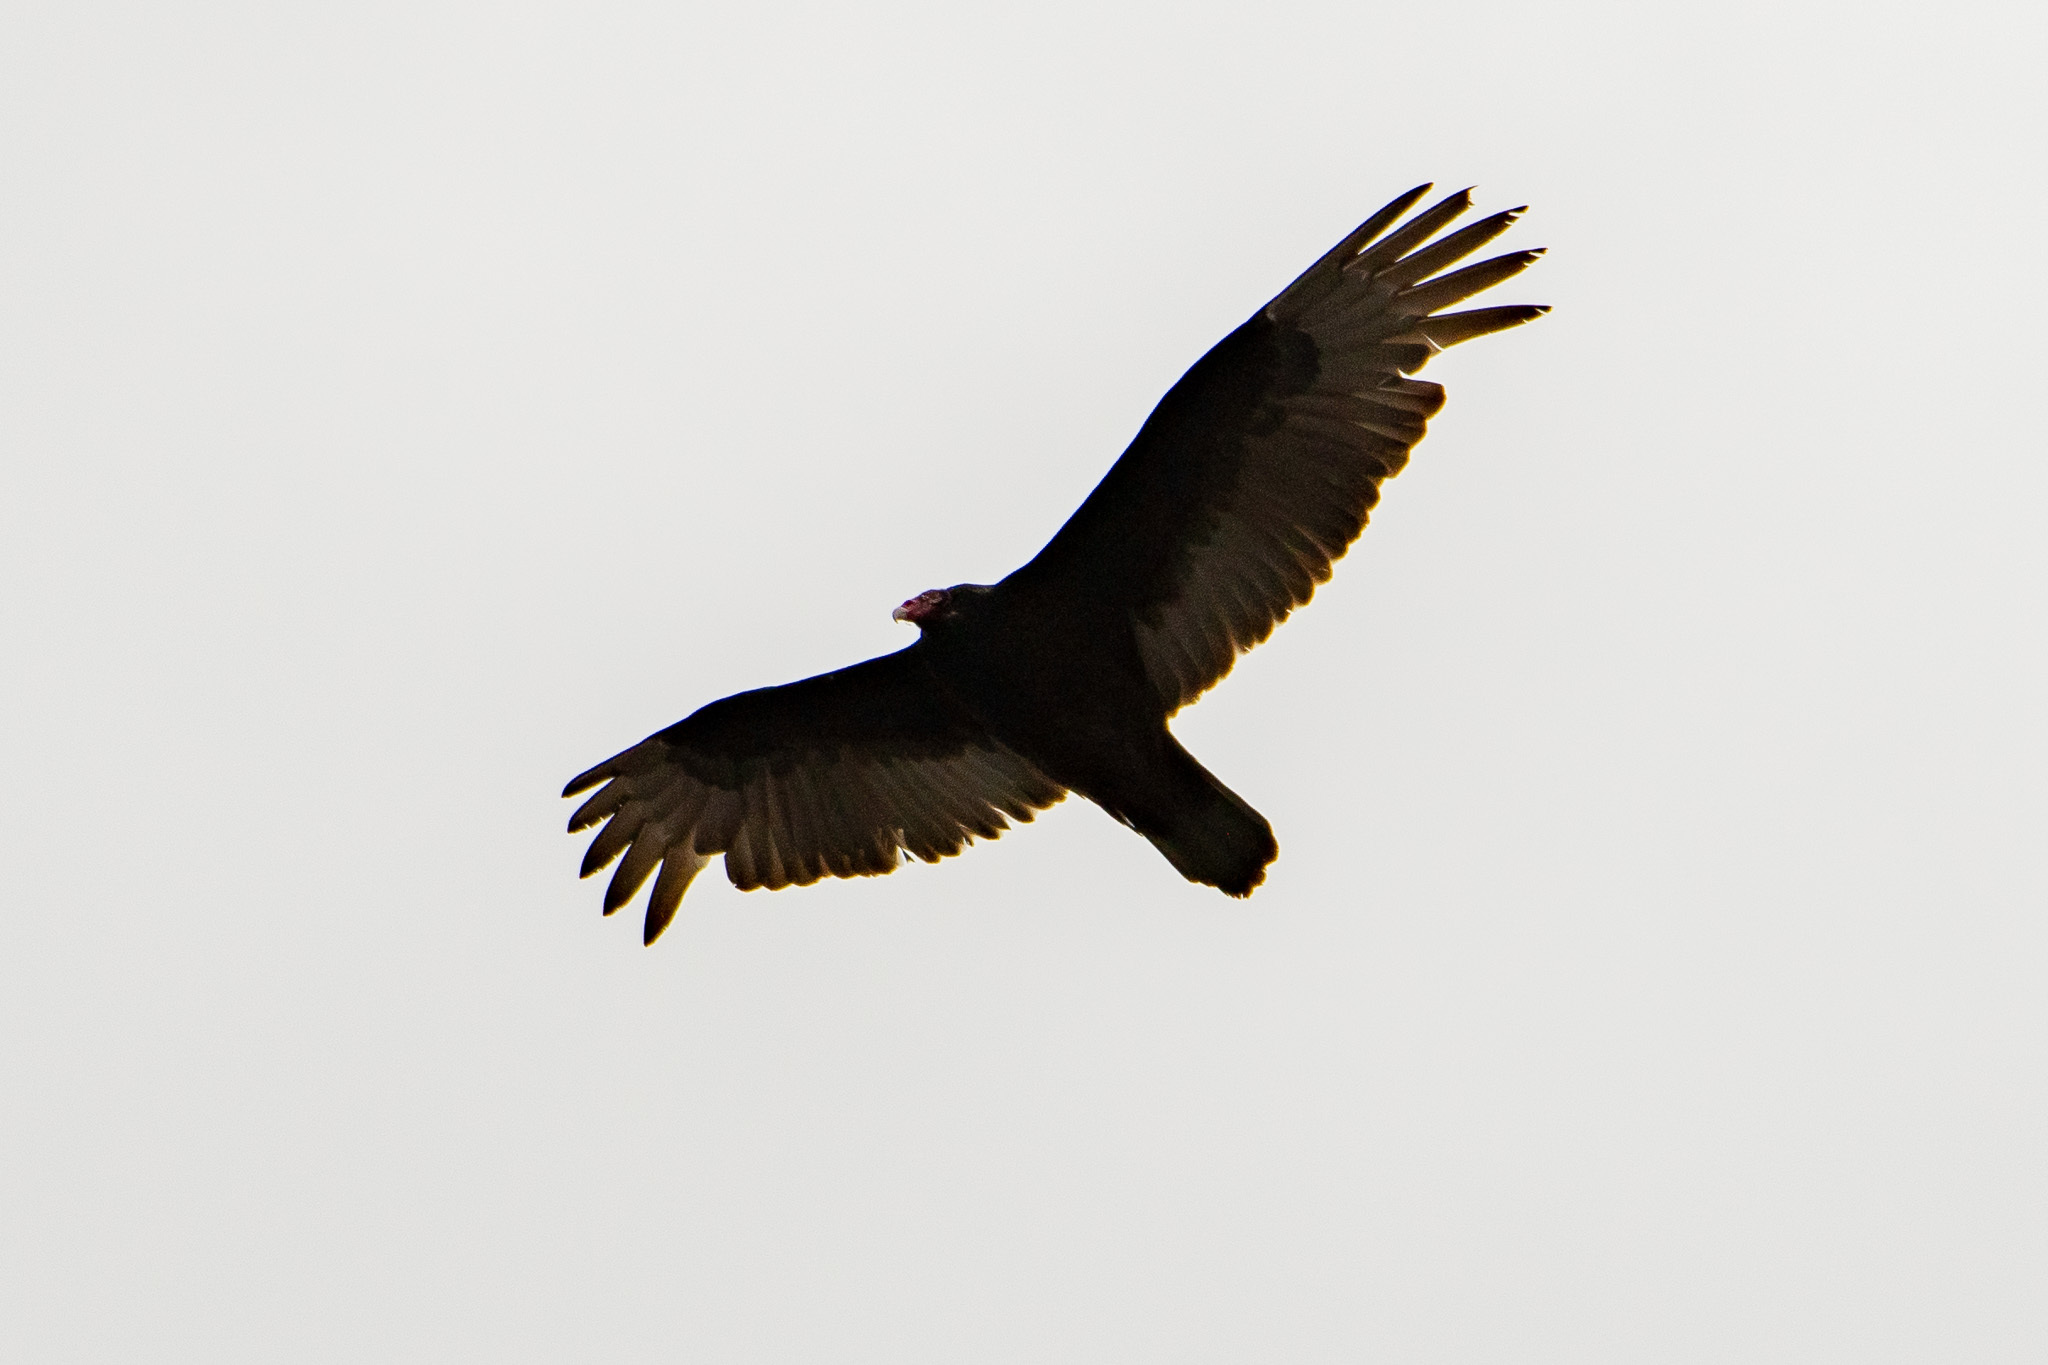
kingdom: Animalia
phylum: Chordata
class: Aves
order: Accipitriformes
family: Cathartidae
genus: Cathartes
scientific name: Cathartes aura
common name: Turkey vulture
